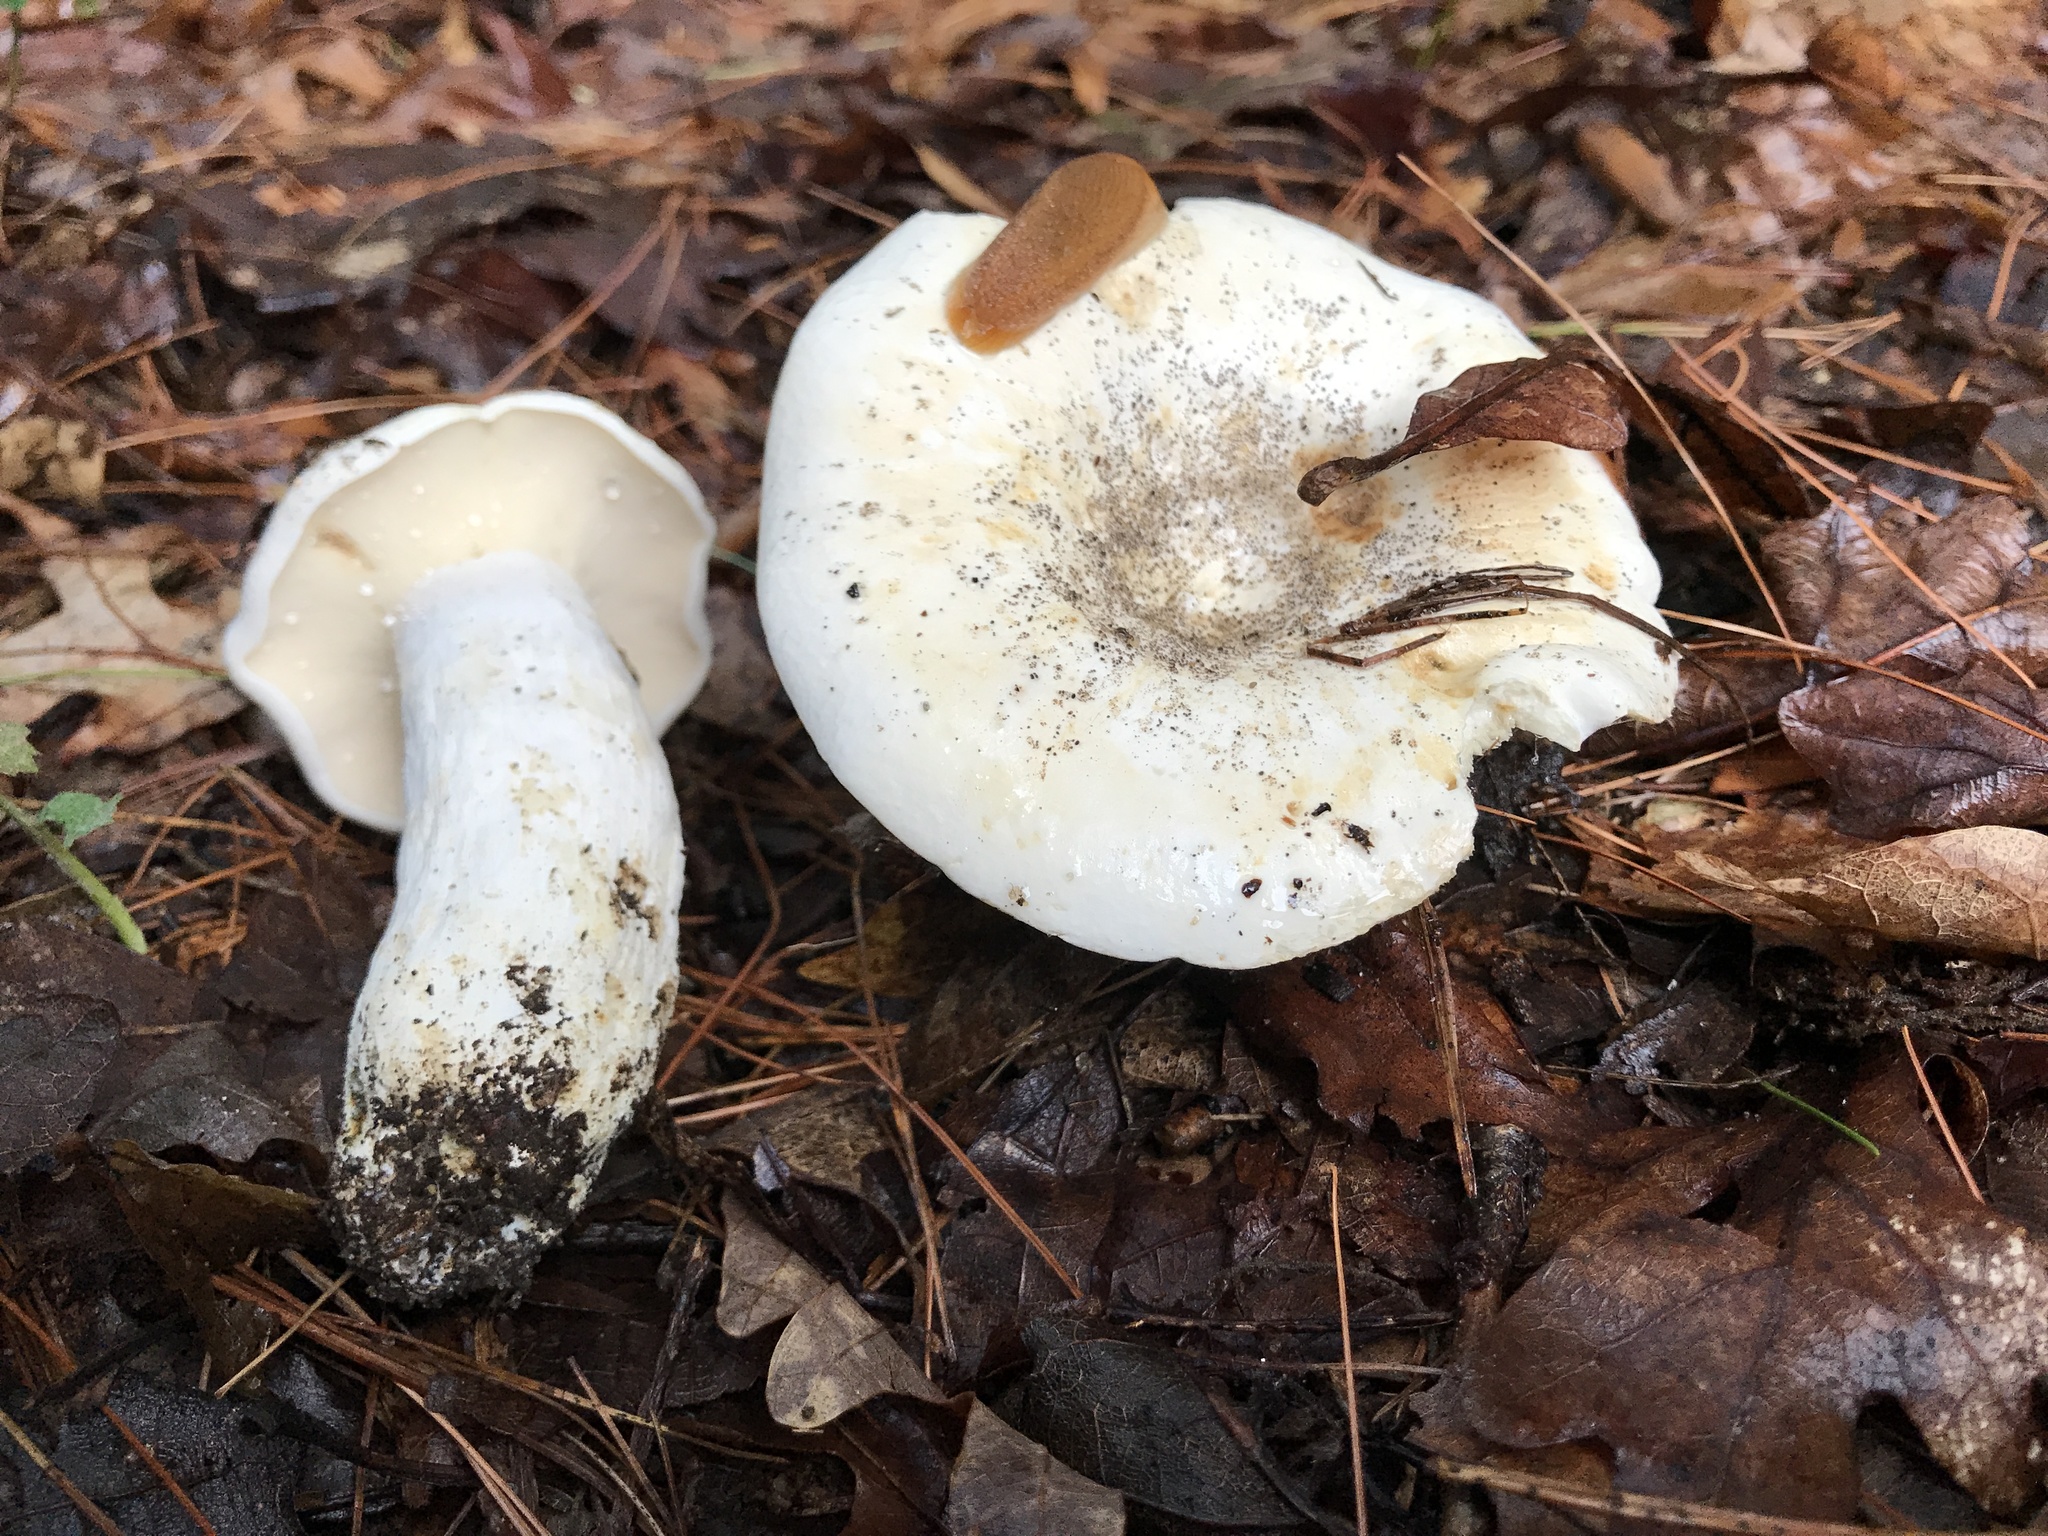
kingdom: Fungi
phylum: Basidiomycota
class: Agaricomycetes
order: Russulales
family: Russulaceae
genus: Lactifluus
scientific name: Lactifluus piperatus
